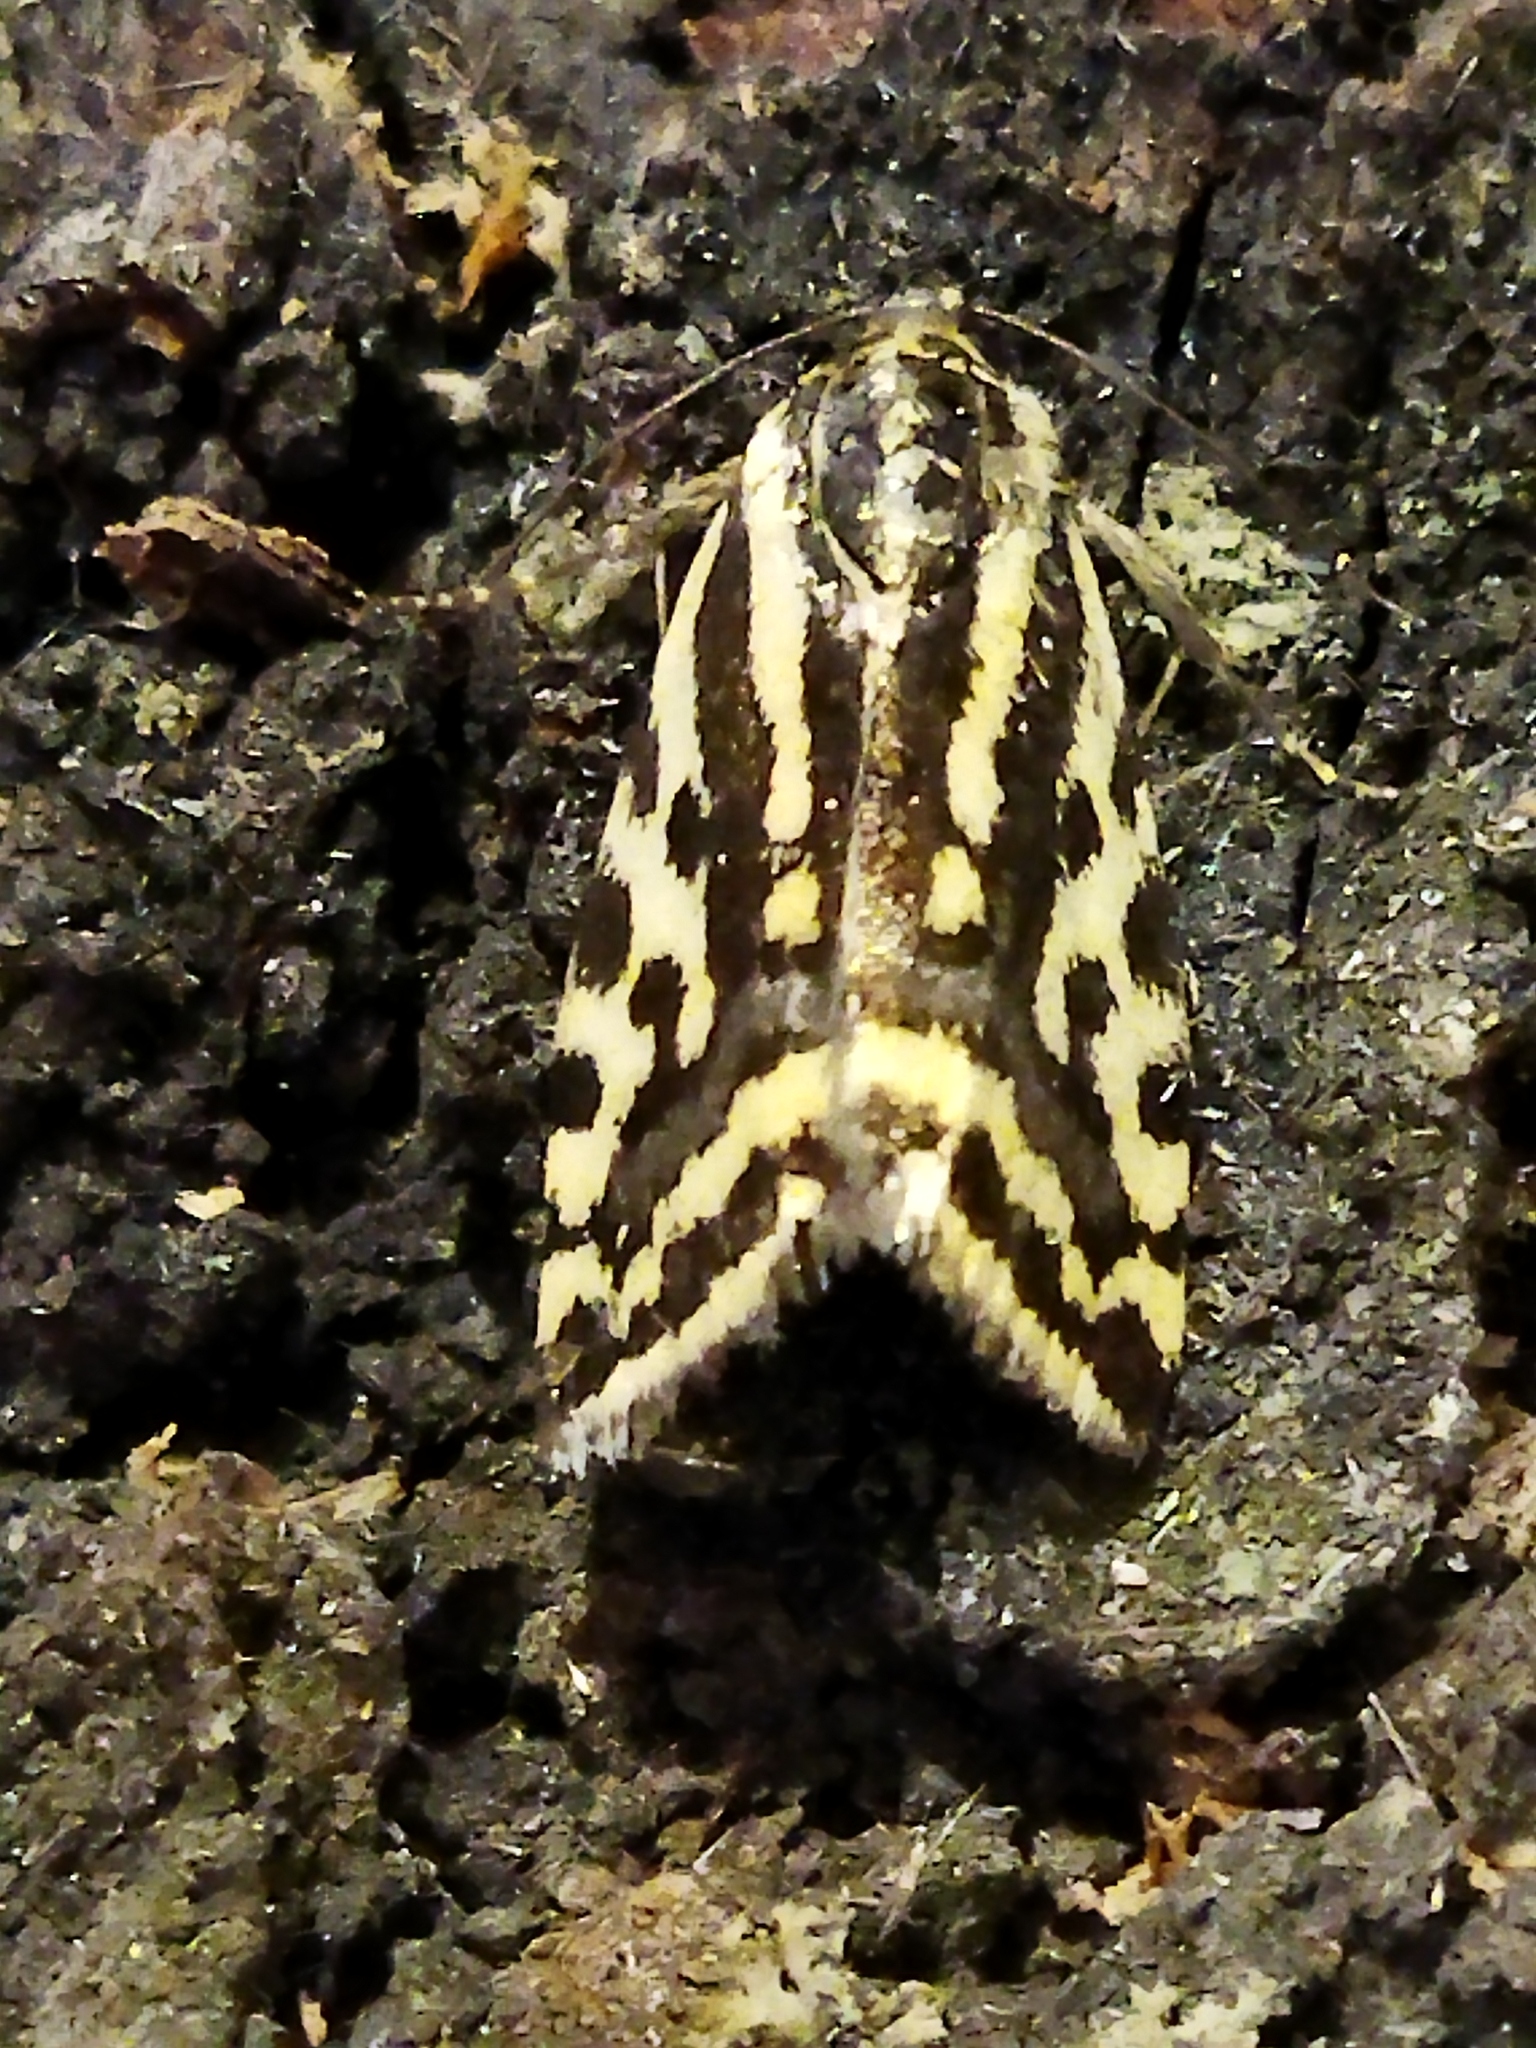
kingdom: Animalia
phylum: Arthropoda
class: Insecta
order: Lepidoptera
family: Noctuidae
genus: Acontia
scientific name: Acontia trabealis
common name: Spotted sulphur
